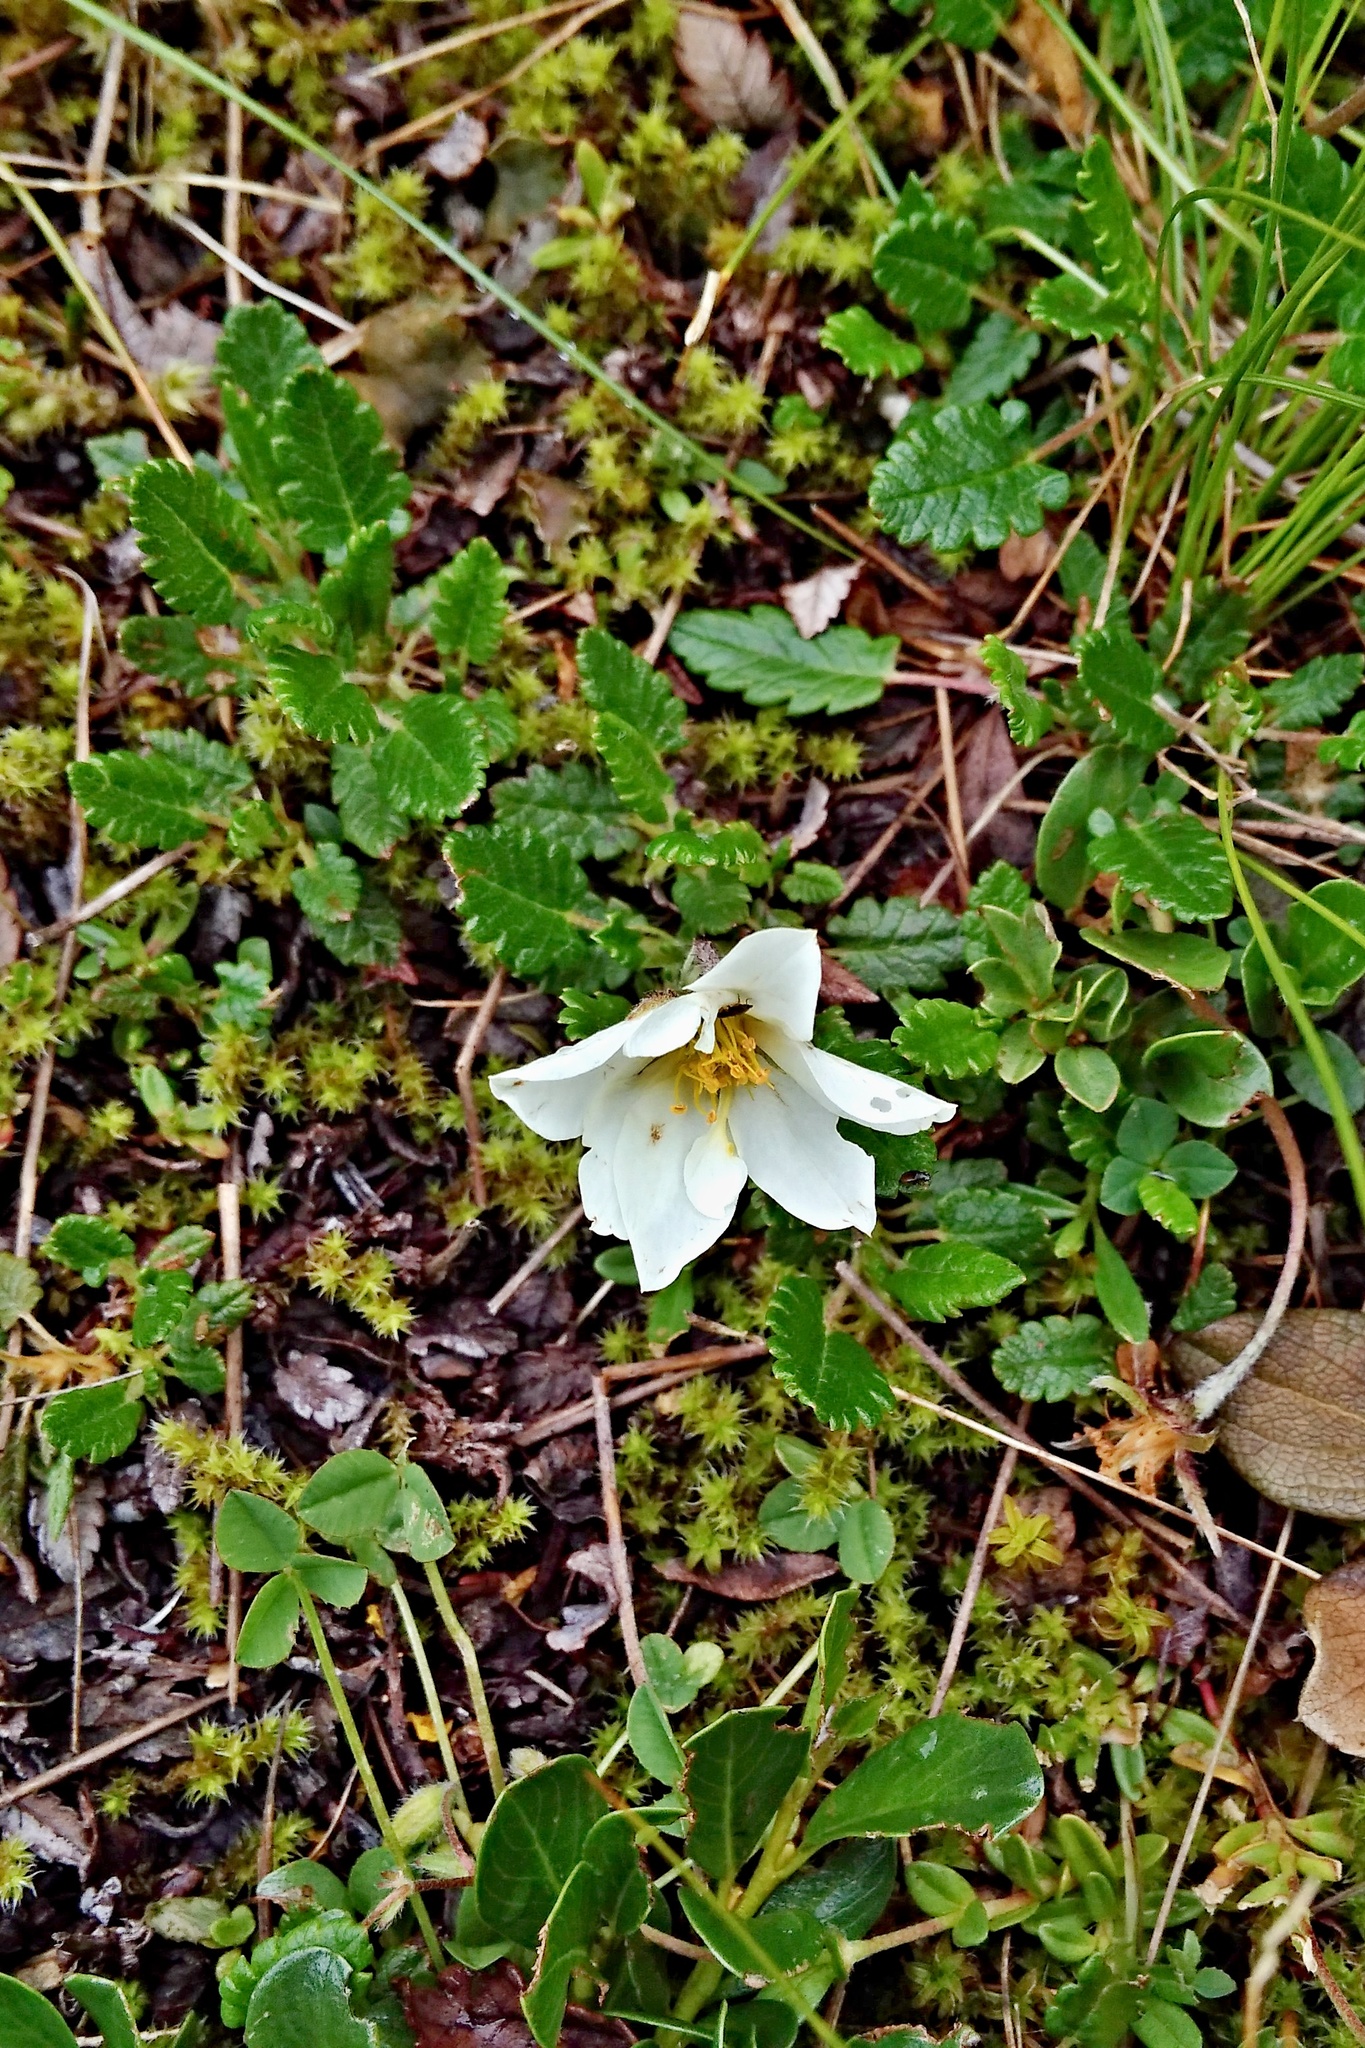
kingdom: Plantae
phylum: Tracheophyta
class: Magnoliopsida
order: Rosales
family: Rosaceae
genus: Dryas
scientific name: Dryas octopetala
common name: Eight-petal mountain-avens
